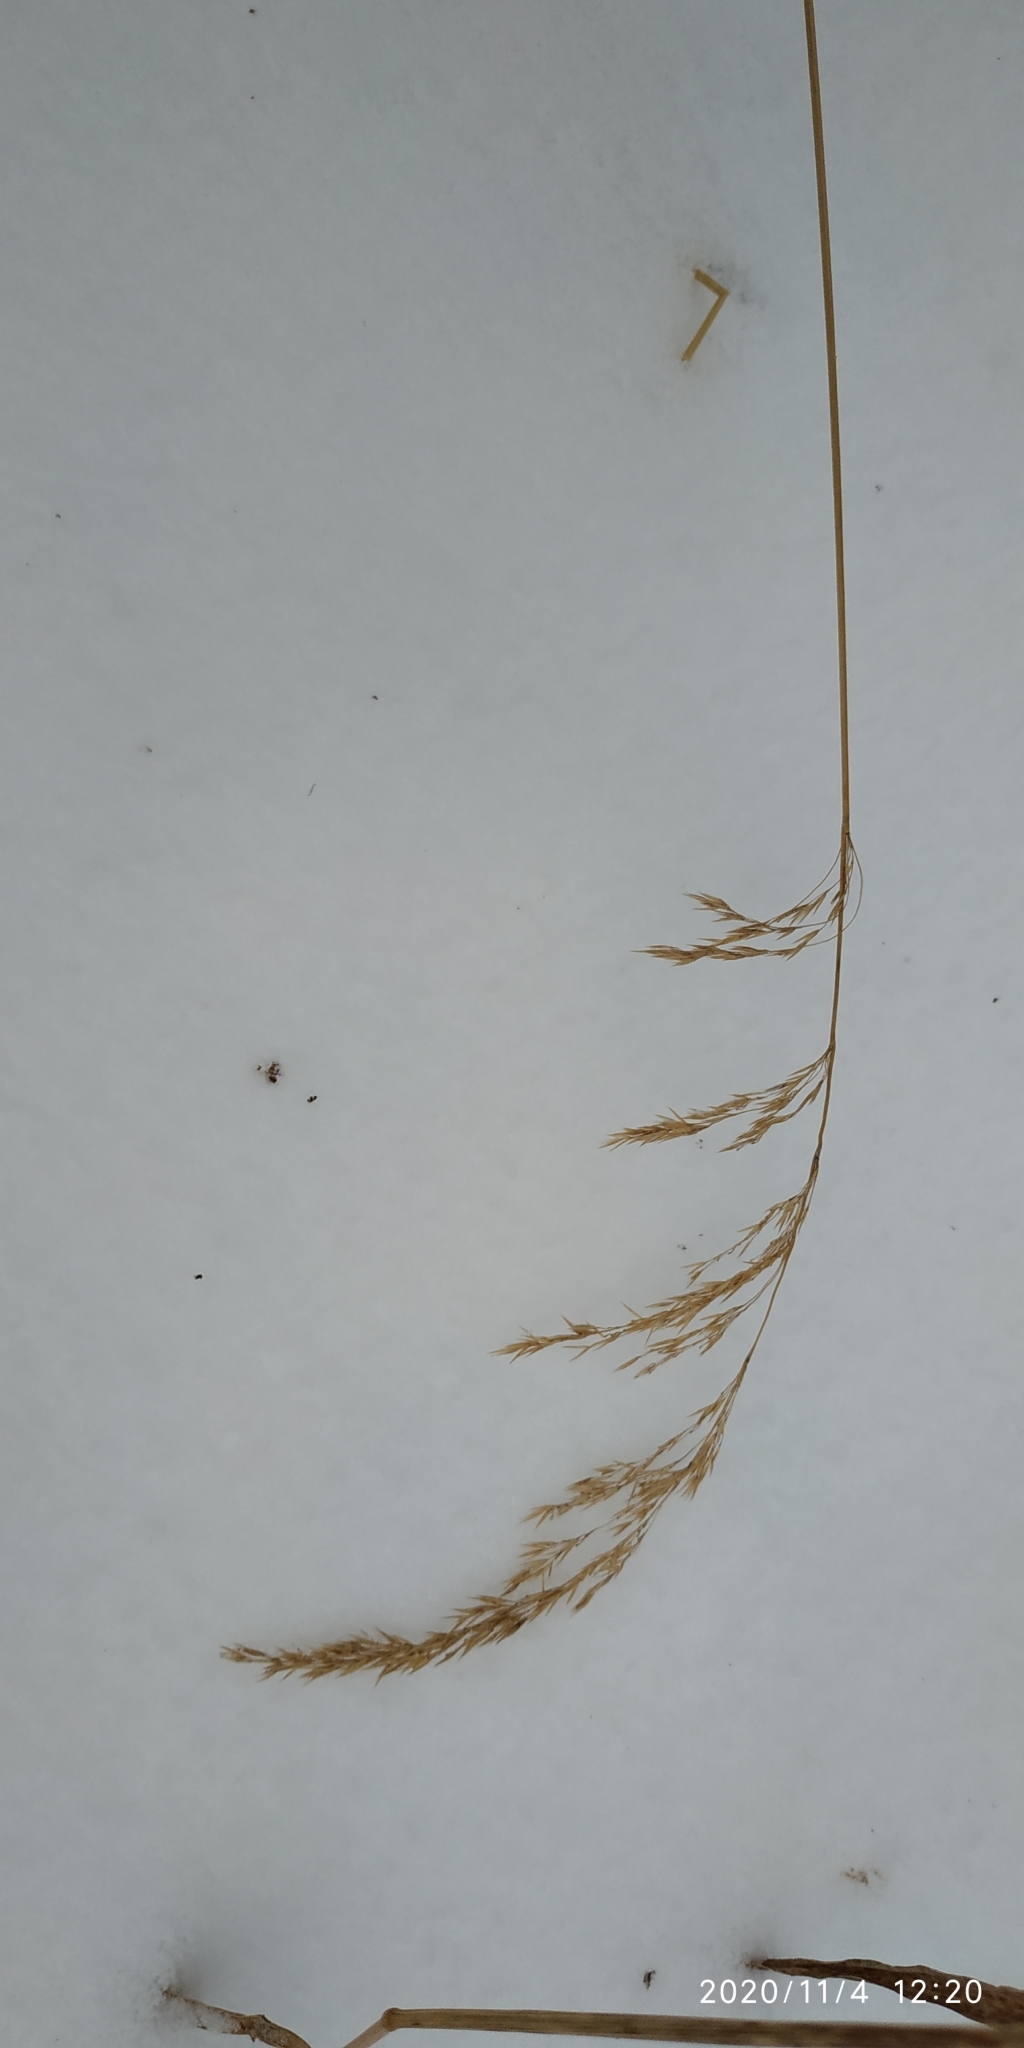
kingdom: Plantae
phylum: Tracheophyta
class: Liliopsida
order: Poales
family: Poaceae
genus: Calamagrostis
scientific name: Calamagrostis purpurea
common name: Scandinavian small-reed
